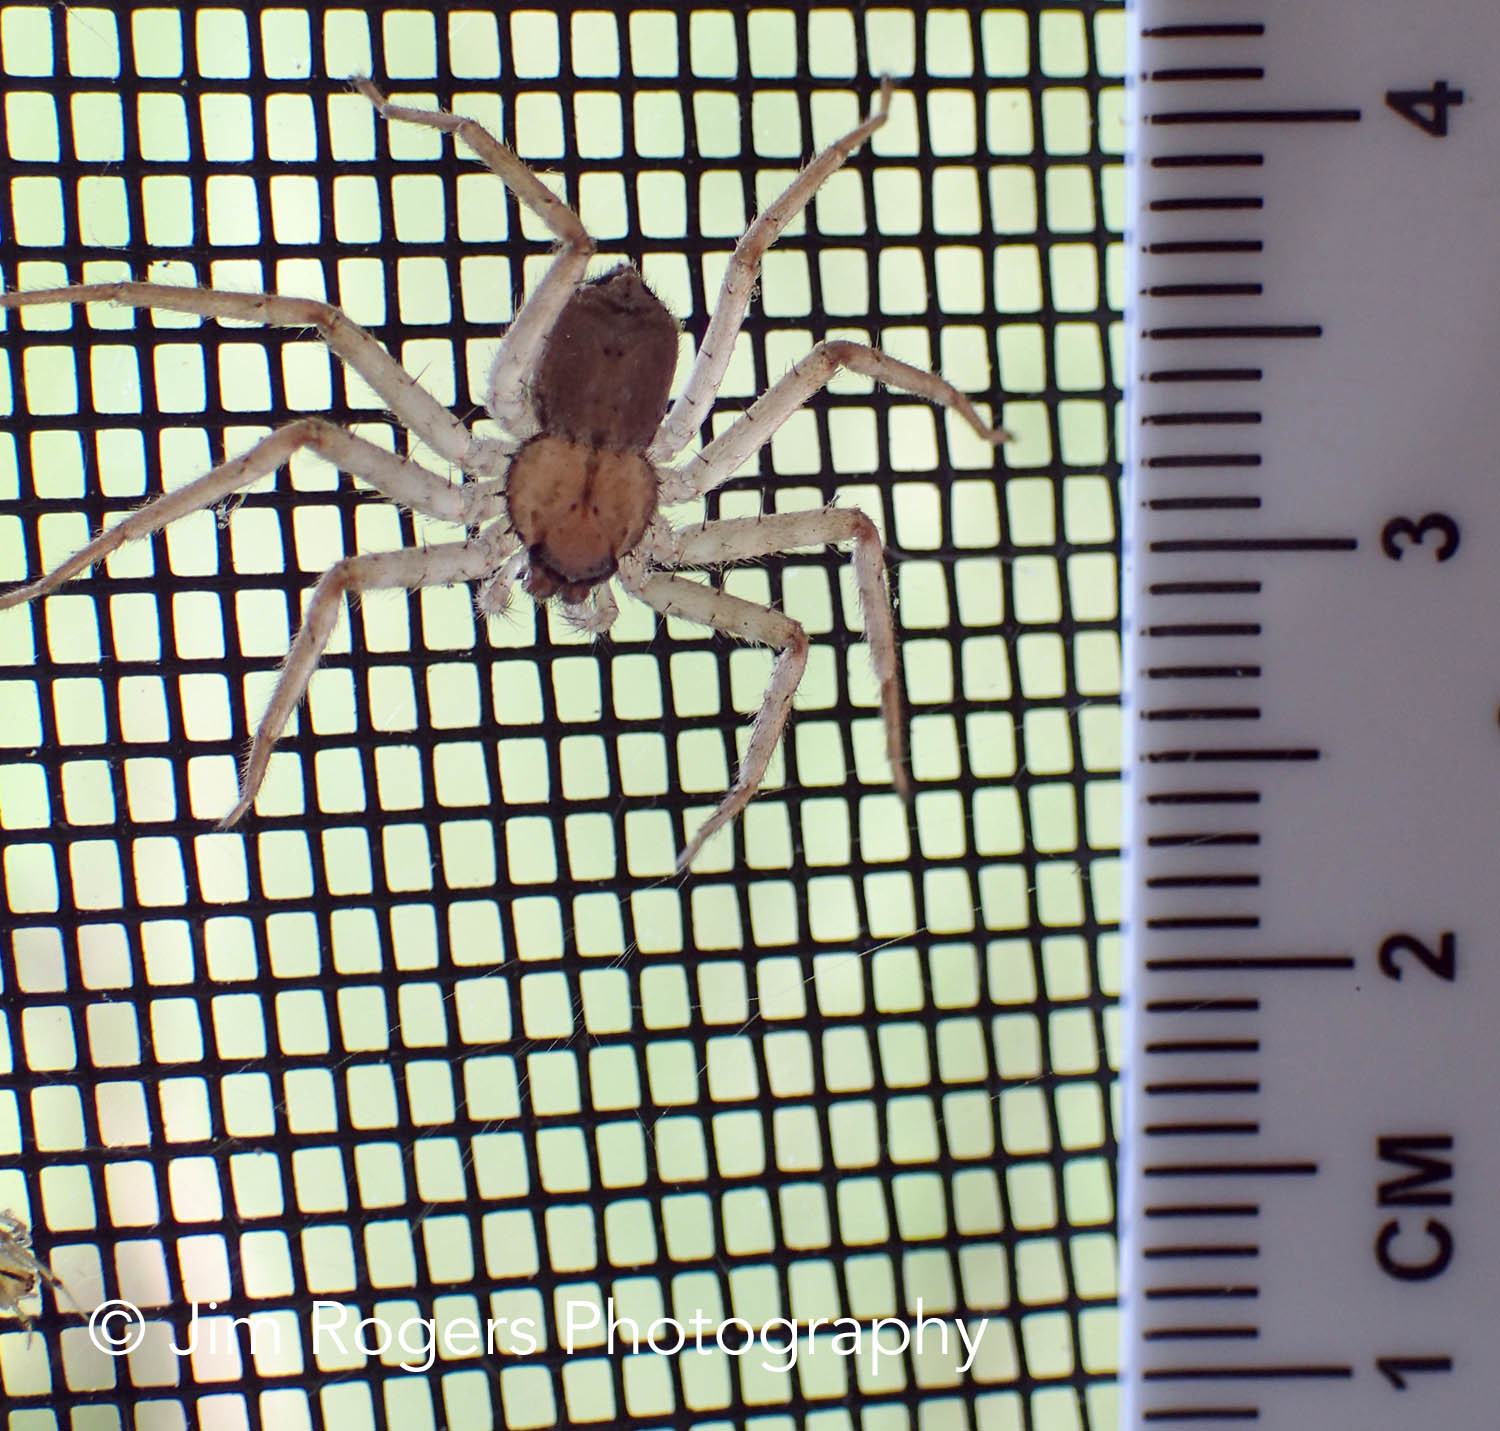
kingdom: Animalia
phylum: Arthropoda
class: Arachnida
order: Araneae
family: Selenopidae
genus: Selenops
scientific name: Selenops submaculosus
